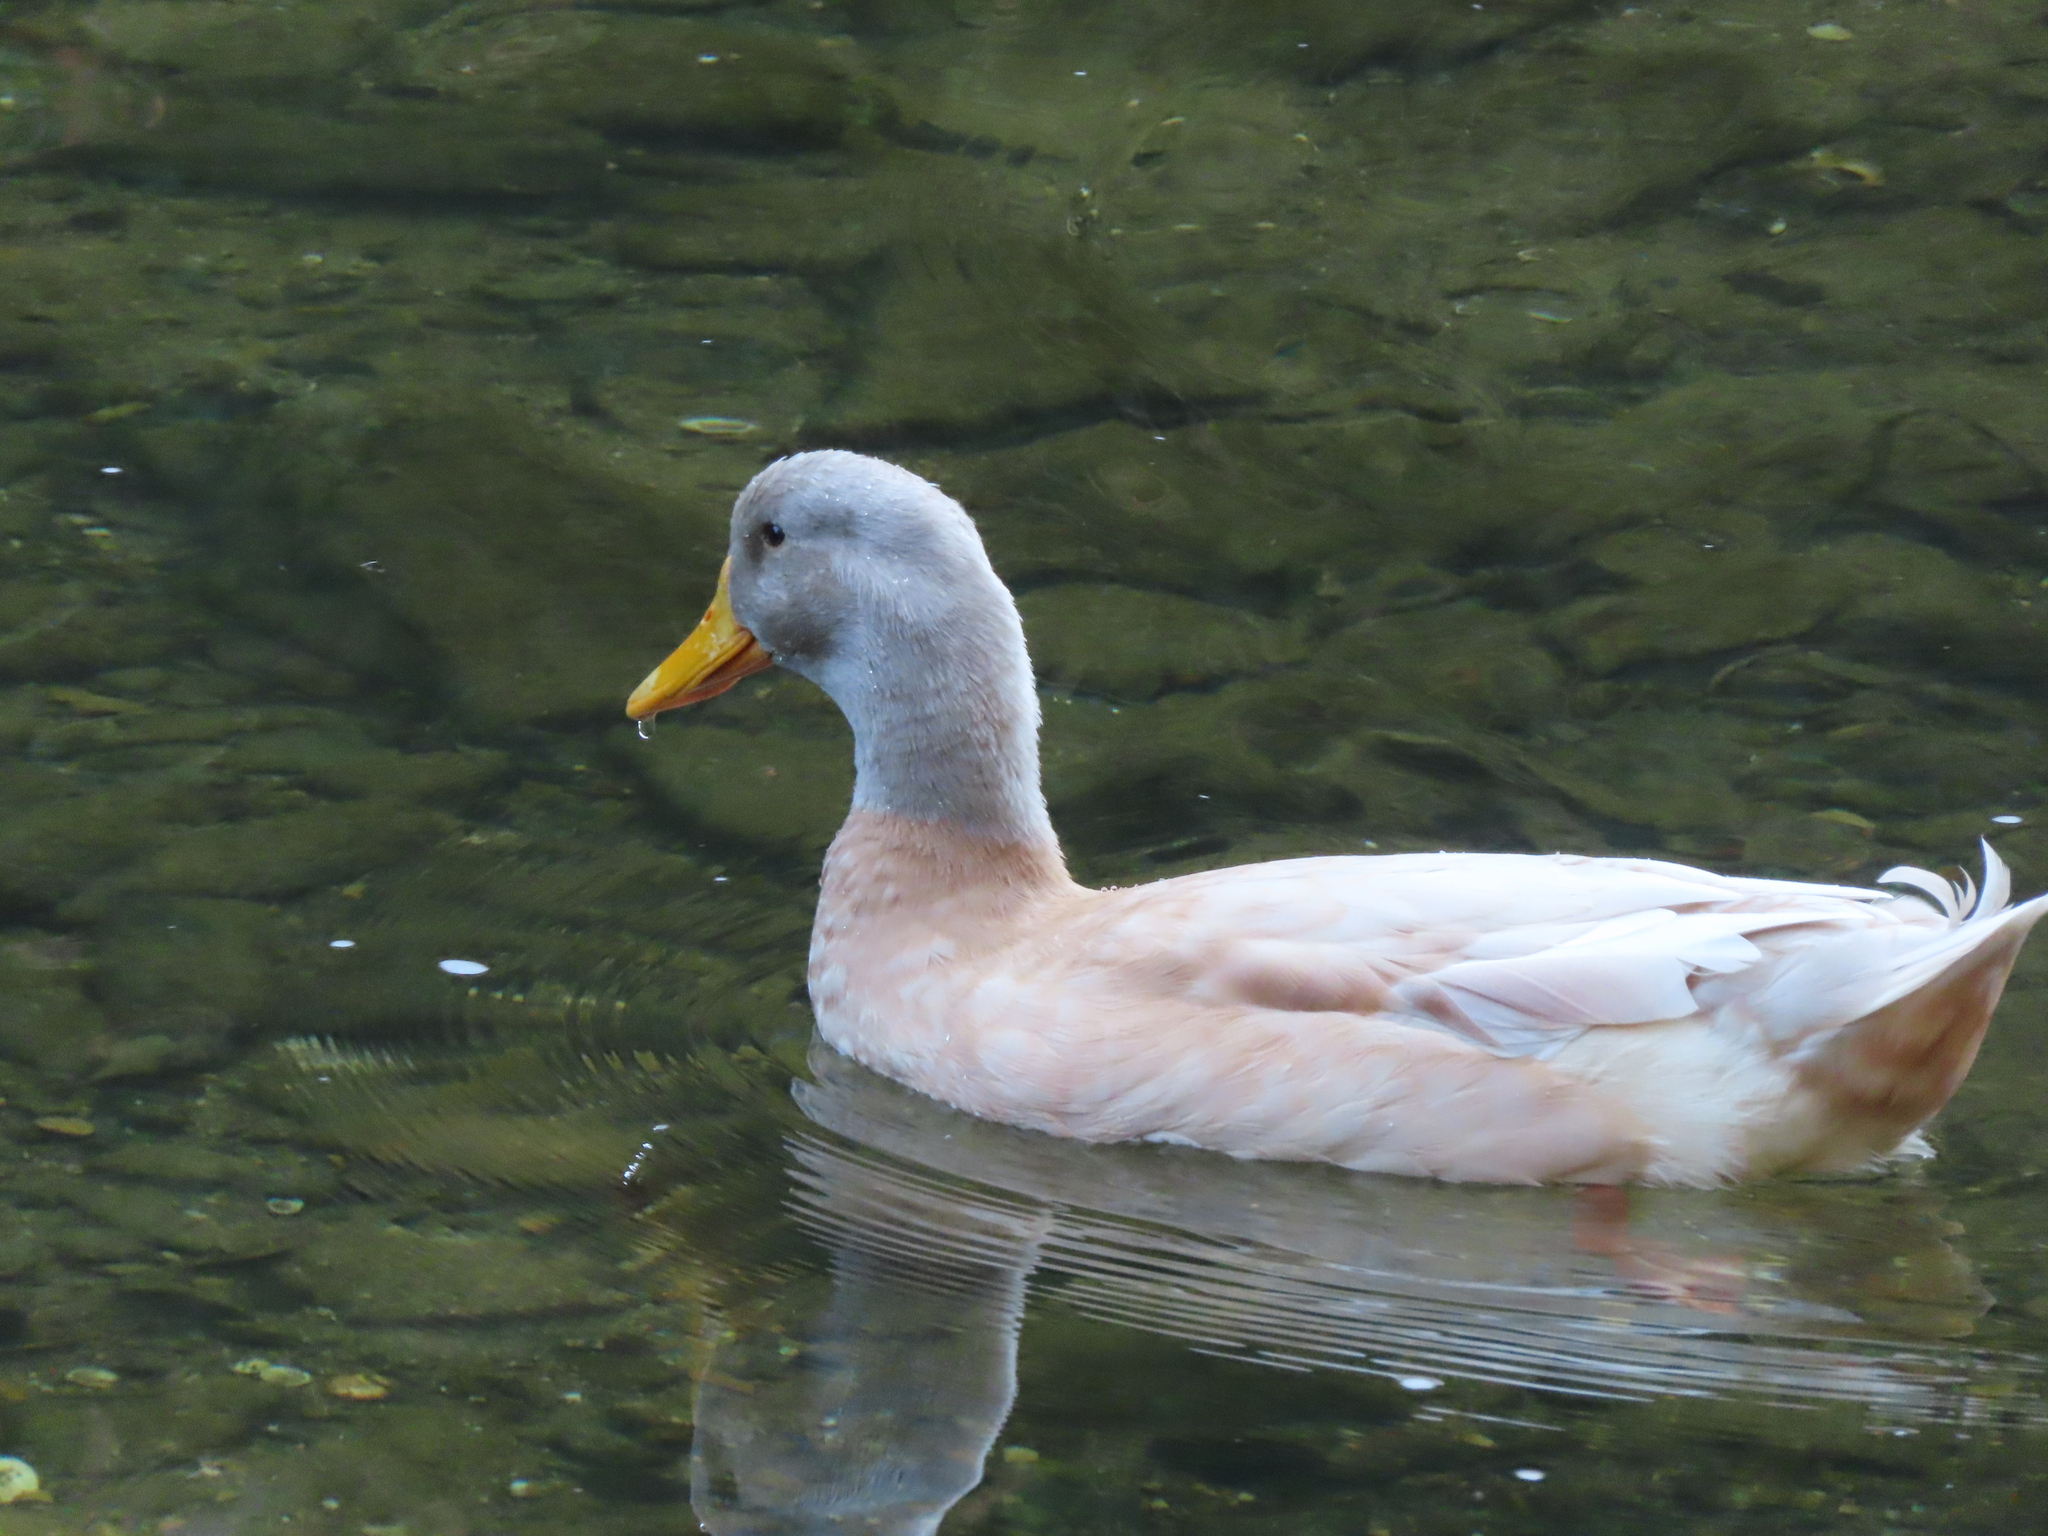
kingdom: Animalia
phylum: Chordata
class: Aves
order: Anseriformes
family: Anatidae
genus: Anas
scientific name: Anas platyrhynchos
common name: Mallard
